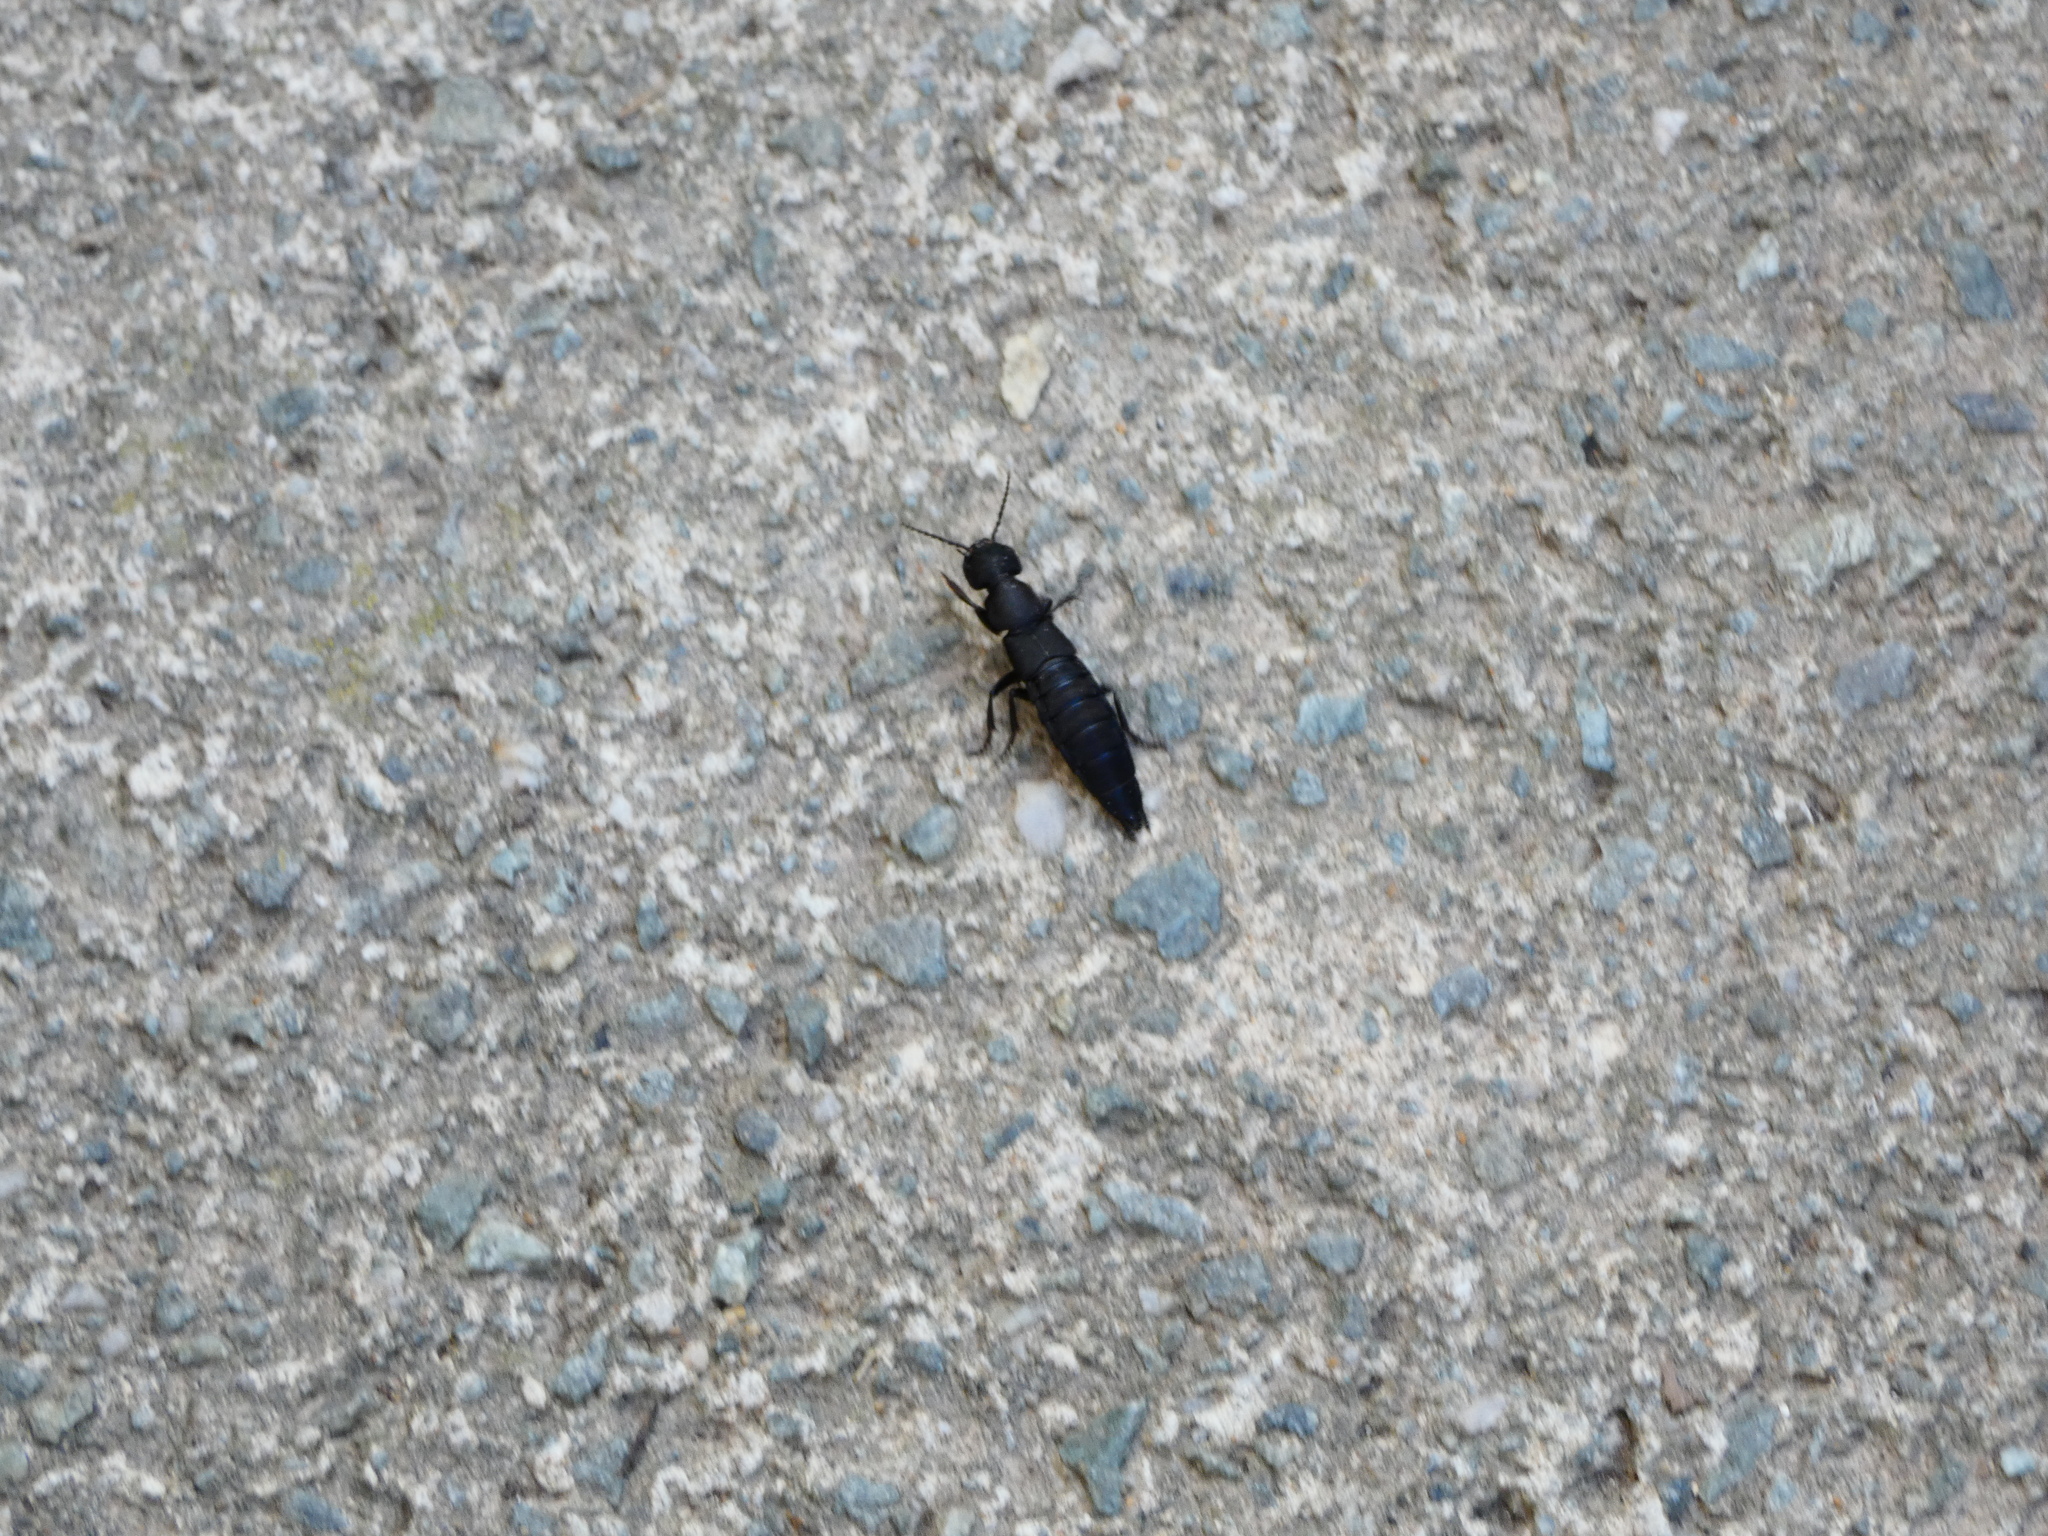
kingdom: Animalia
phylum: Arthropoda
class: Insecta
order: Coleoptera
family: Staphylinidae
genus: Ocypus
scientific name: Ocypus olens
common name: Devil's coach-horse
